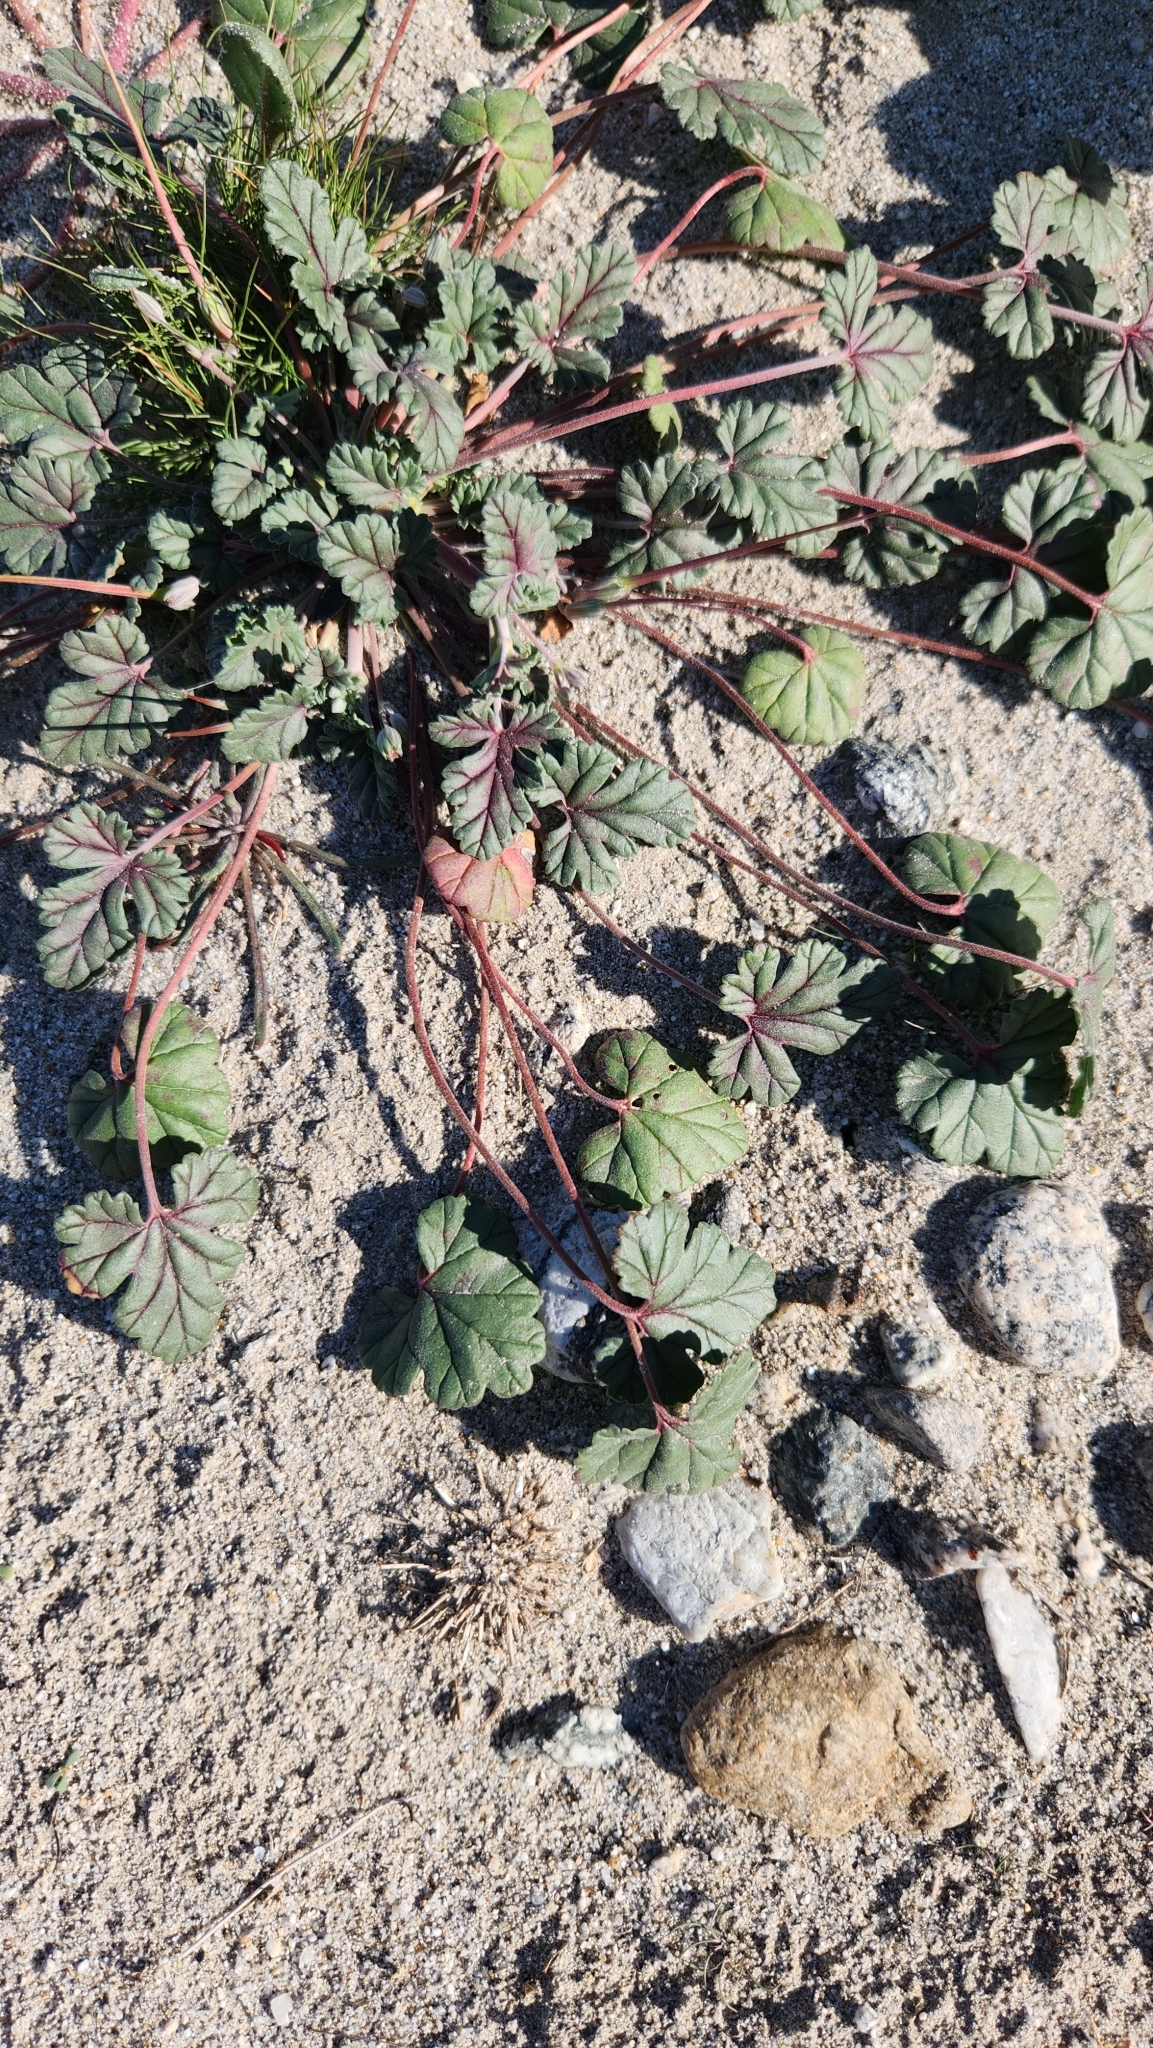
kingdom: Plantae
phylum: Tracheophyta
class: Magnoliopsida
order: Geraniales
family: Geraniaceae
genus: Erodium
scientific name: Erodium texanum
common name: Texas stork's-bill
